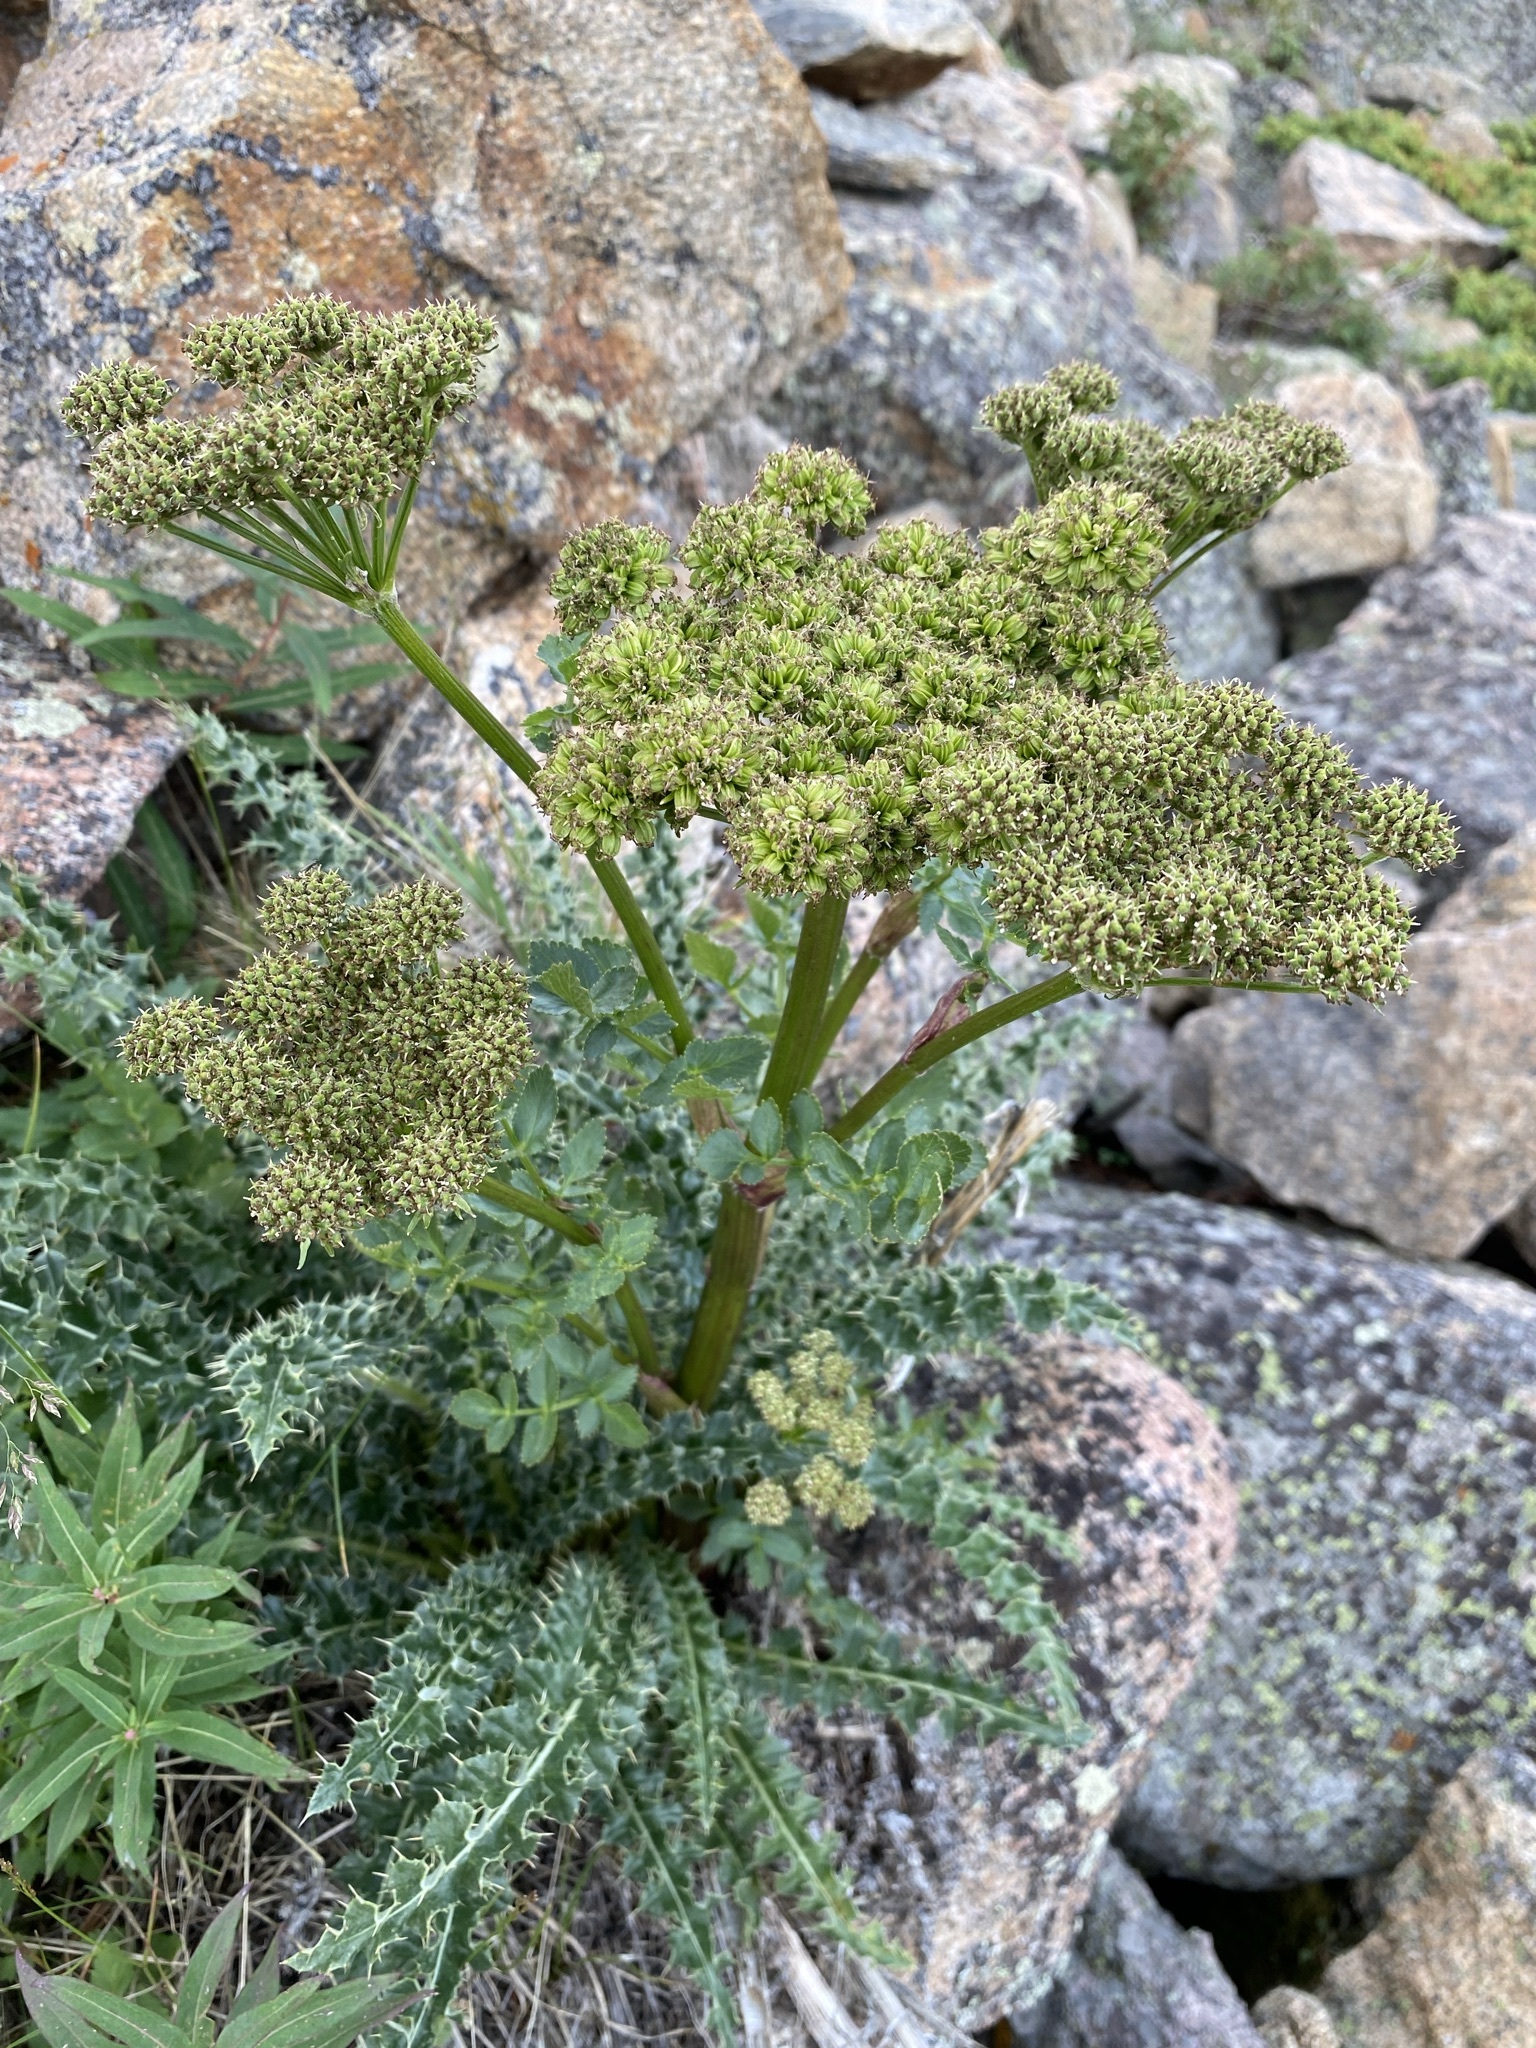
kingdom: Plantae
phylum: Tracheophyta
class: Magnoliopsida
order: Apiales
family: Apiaceae
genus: Angelica
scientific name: Angelica grayi
